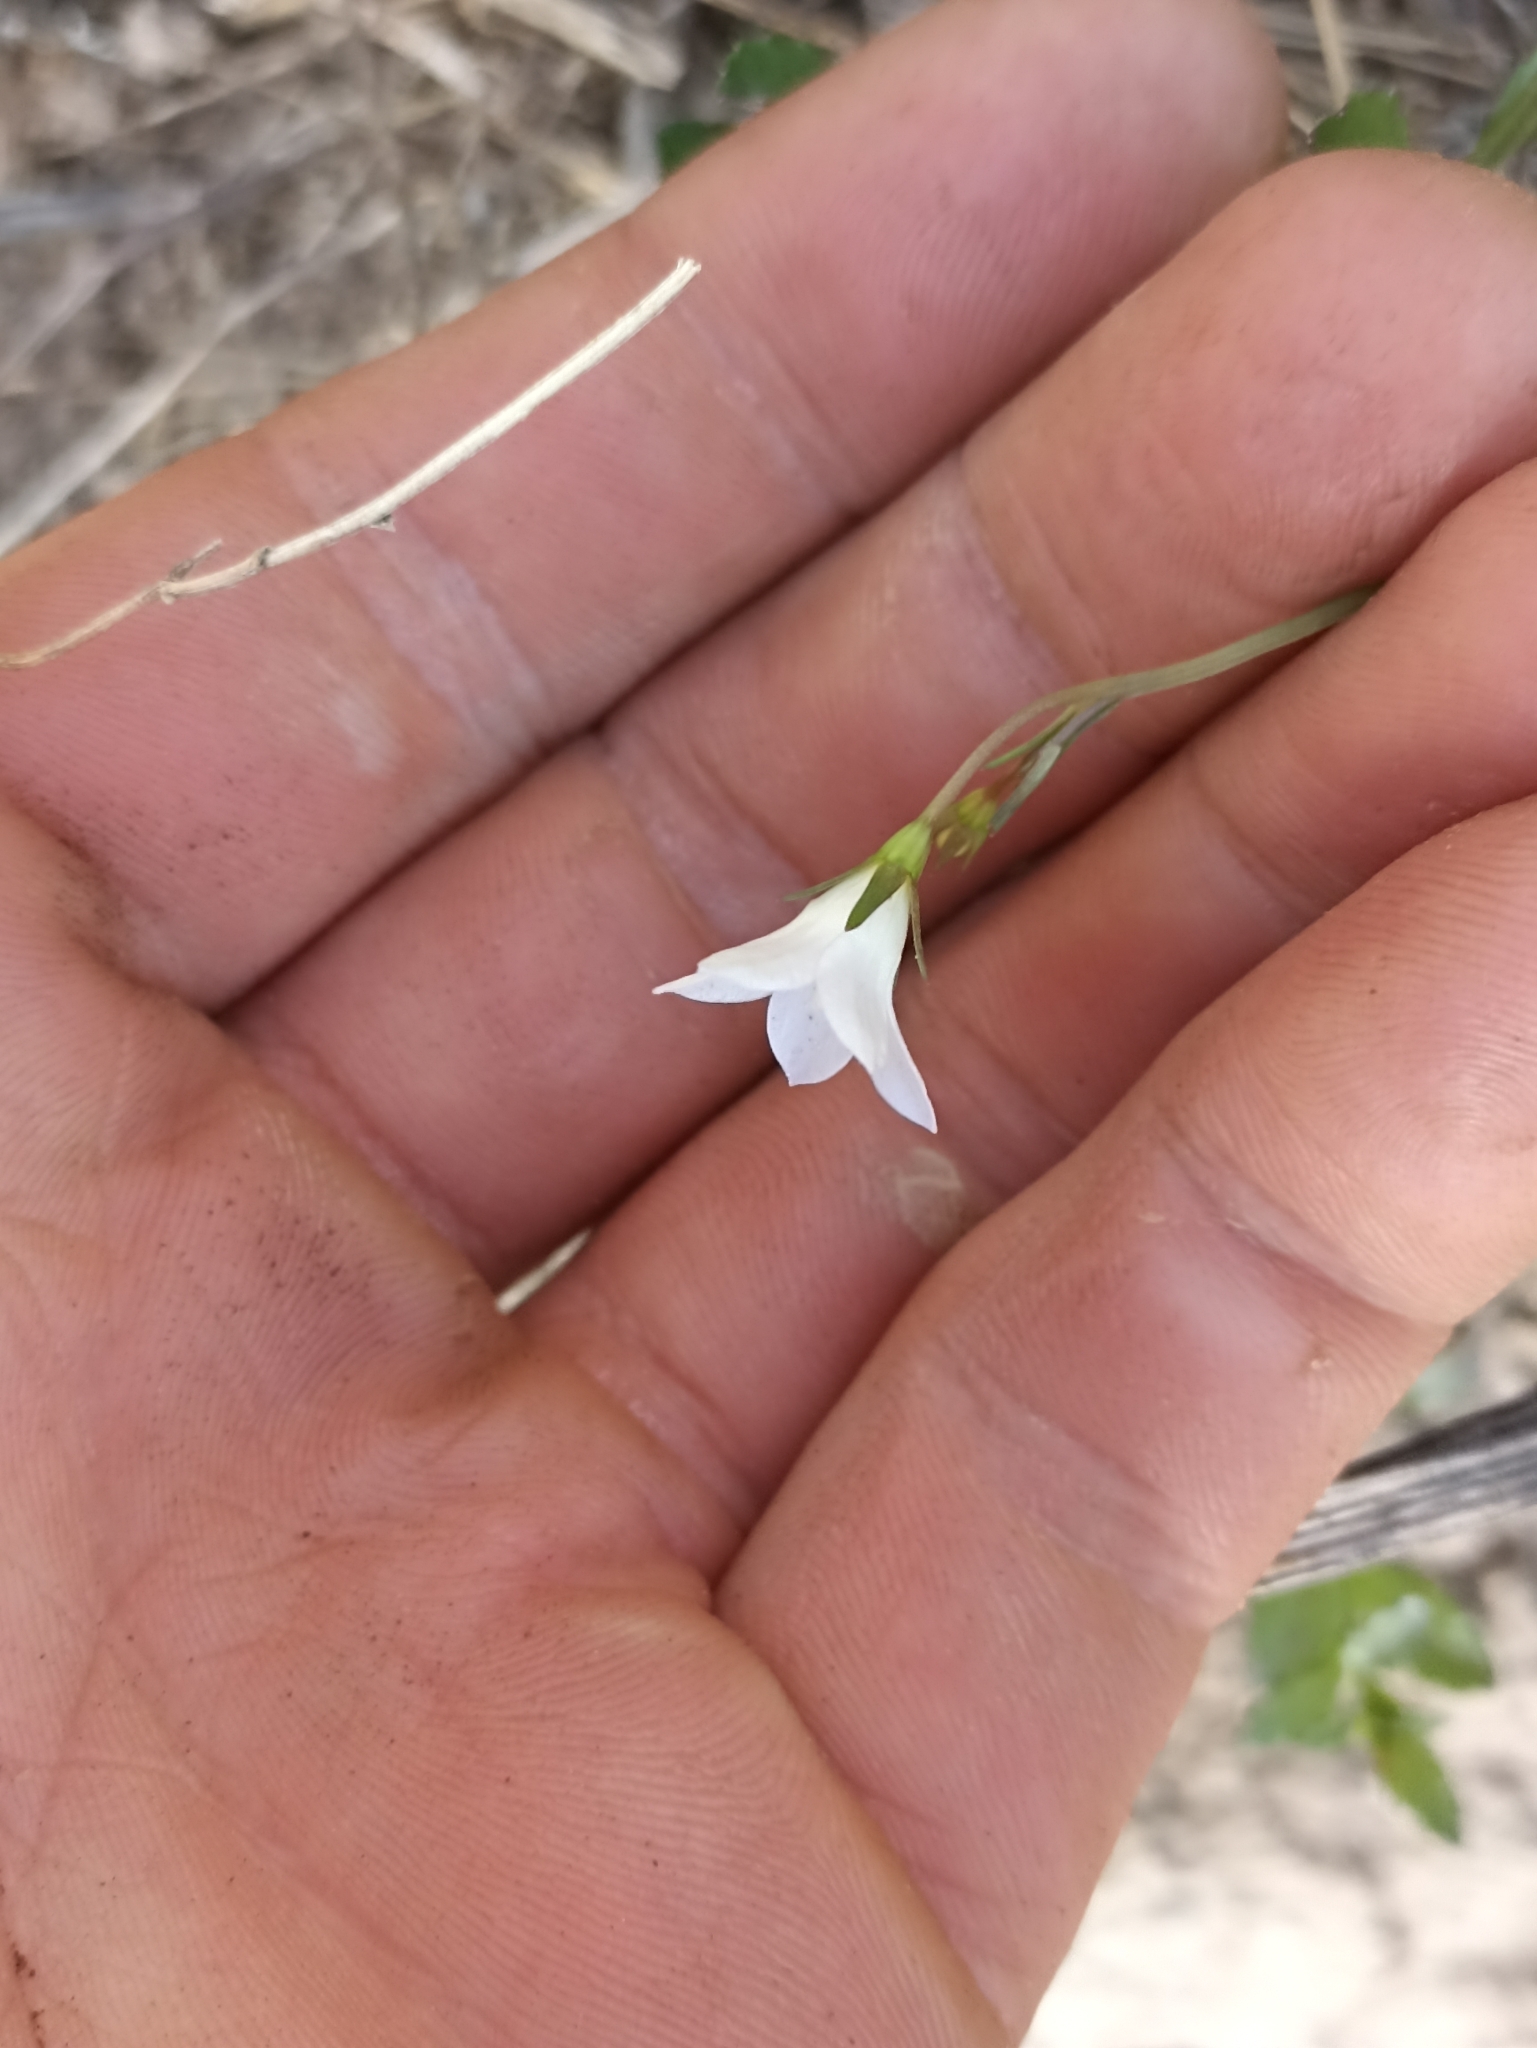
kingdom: Plantae
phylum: Tracheophyta
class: Magnoliopsida
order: Asterales
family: Campanulaceae
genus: Wahlenbergia
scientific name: Wahlenbergia vernicosa
